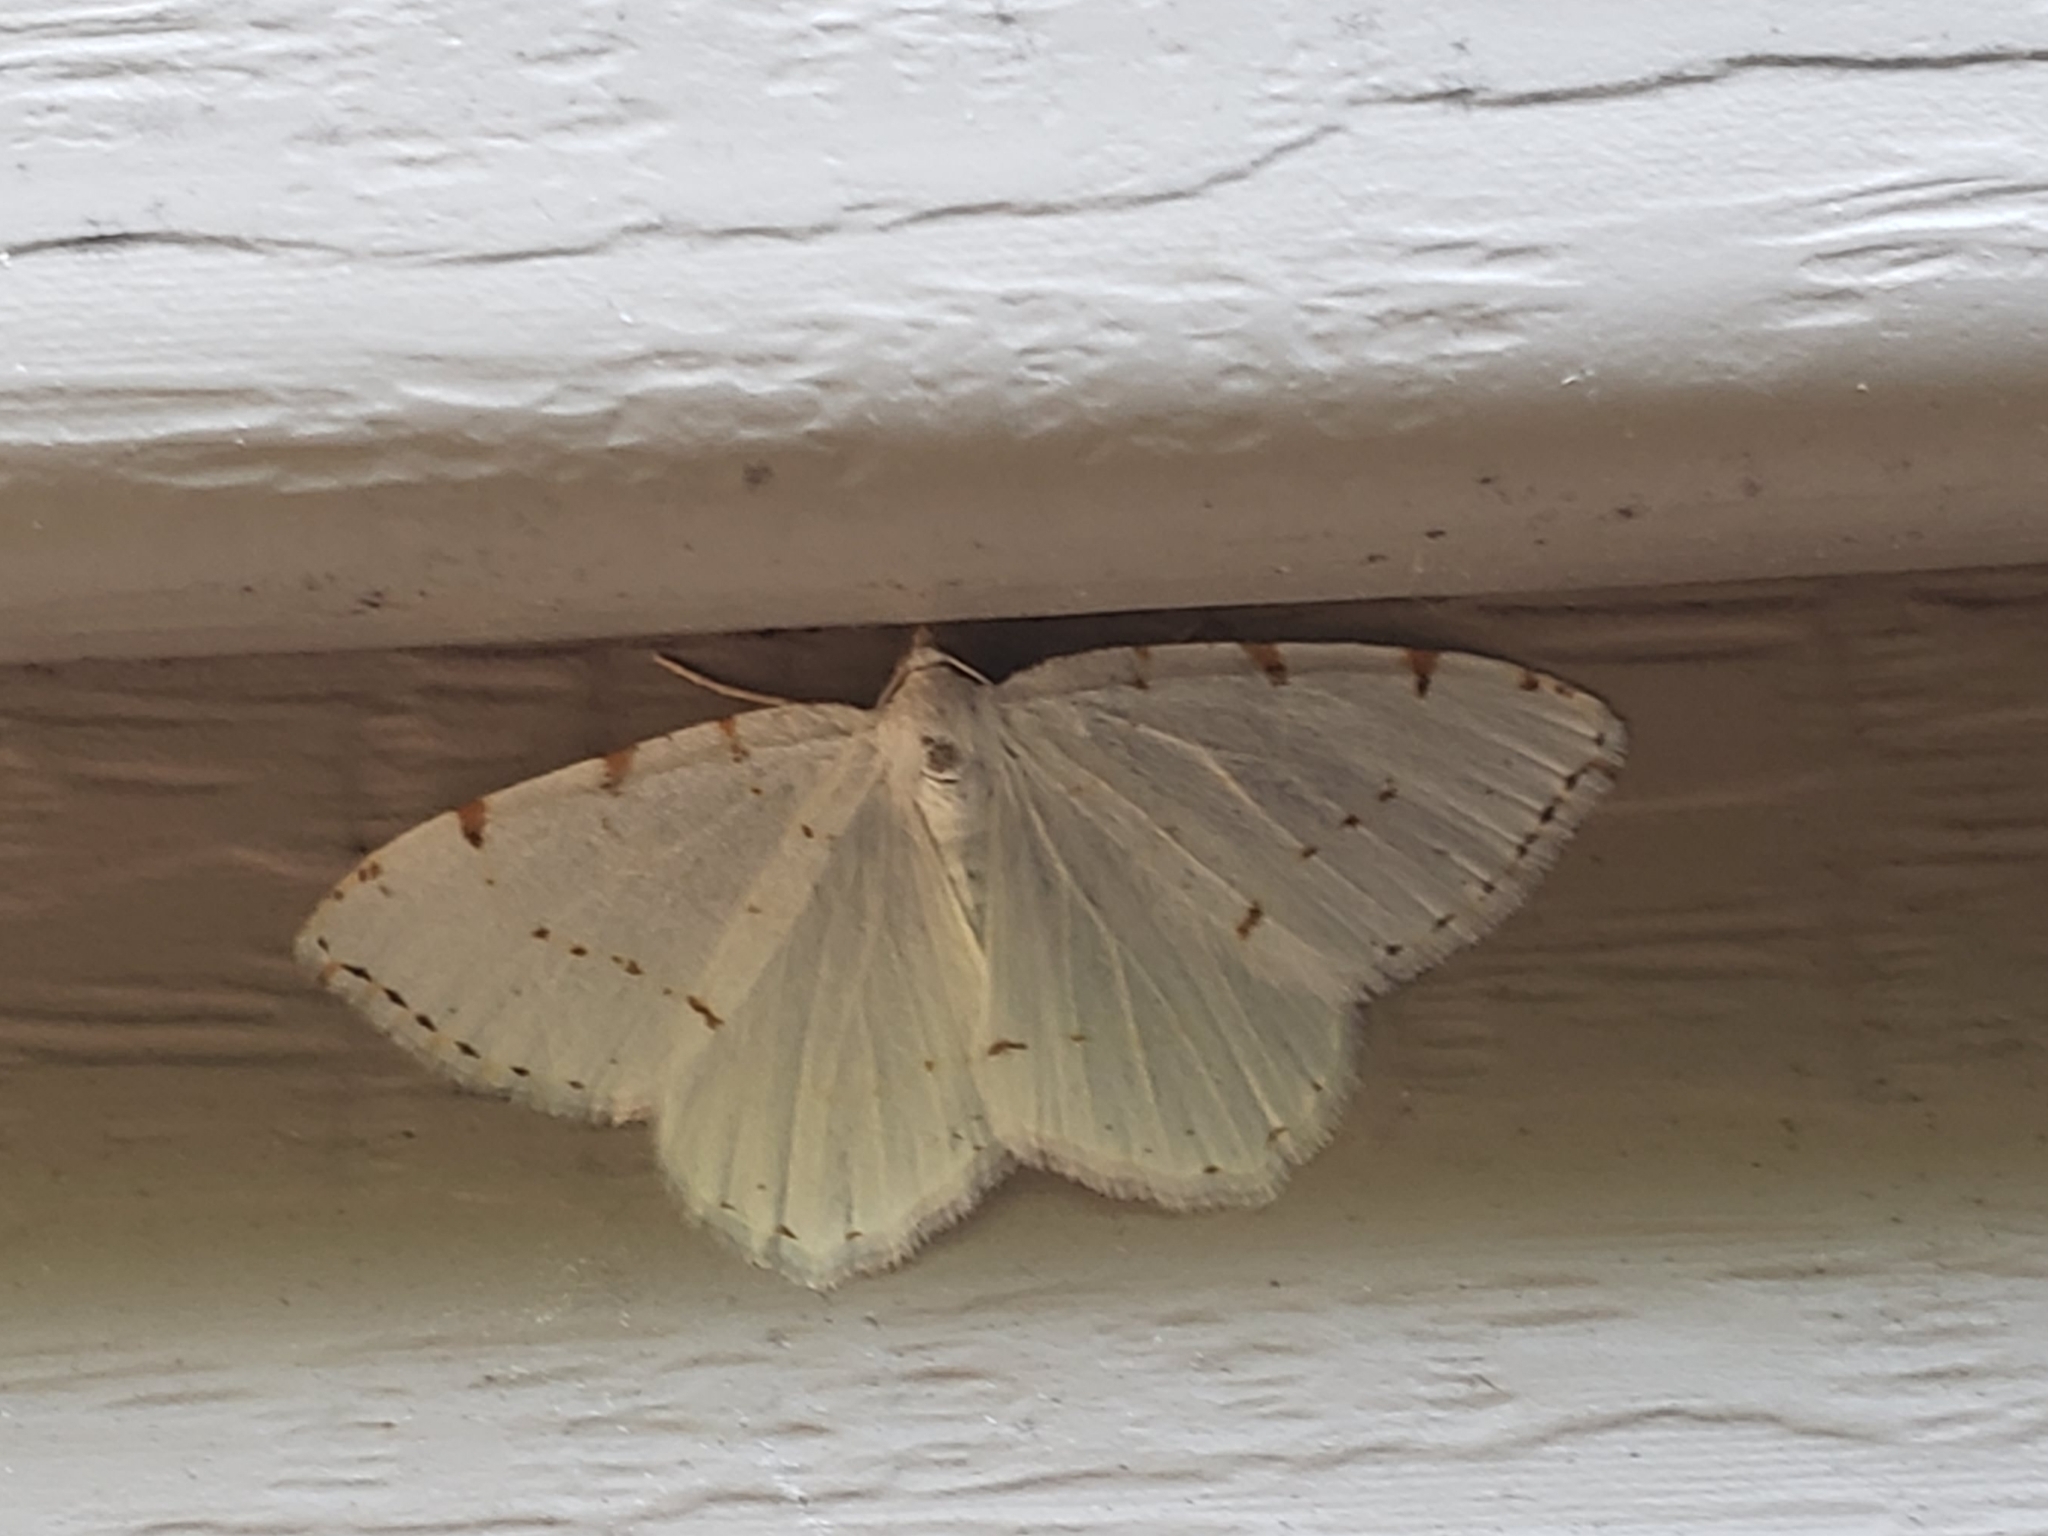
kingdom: Animalia
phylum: Arthropoda
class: Insecta
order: Lepidoptera
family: Geometridae
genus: Macaria
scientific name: Macaria pustularia
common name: Lesser maple spanworm moth
